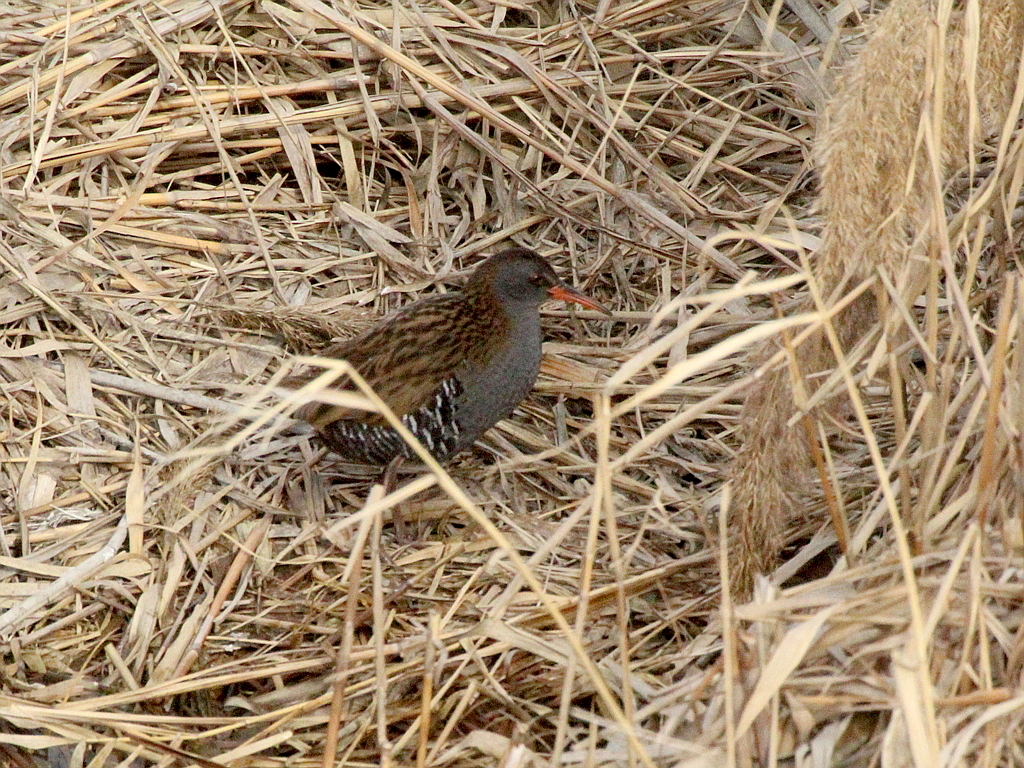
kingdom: Animalia
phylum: Chordata
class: Aves
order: Gruiformes
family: Rallidae
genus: Rallus
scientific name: Rallus aquaticus
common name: Water rail
